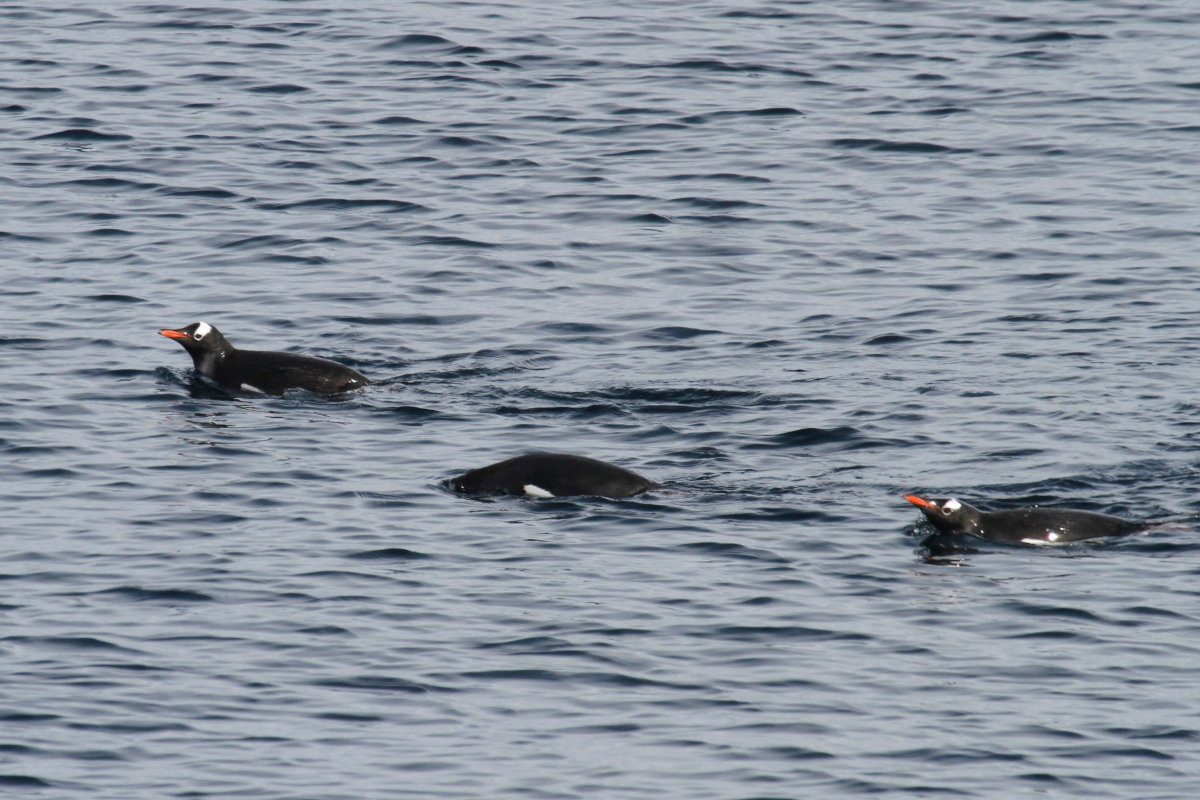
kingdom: Animalia
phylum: Chordata
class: Aves
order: Sphenisciformes
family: Spheniscidae
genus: Pygoscelis
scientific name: Pygoscelis papua
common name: Gentoo penguin
